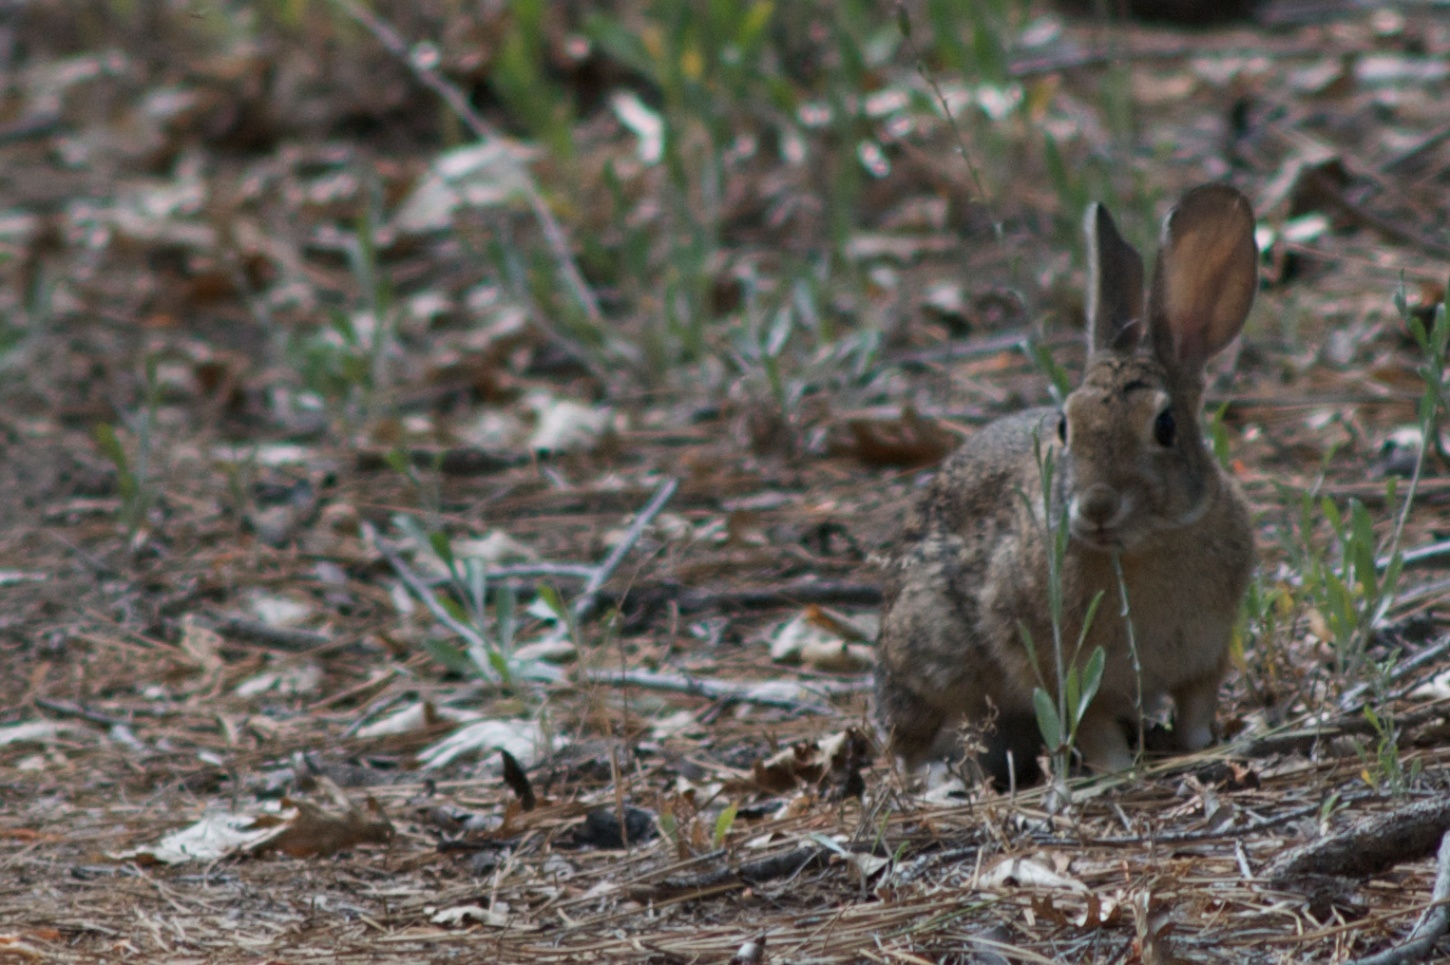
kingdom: Animalia
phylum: Chordata
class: Mammalia
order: Lagomorpha
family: Leporidae
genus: Sylvilagus
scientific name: Sylvilagus audubonii
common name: Desert cottontail
